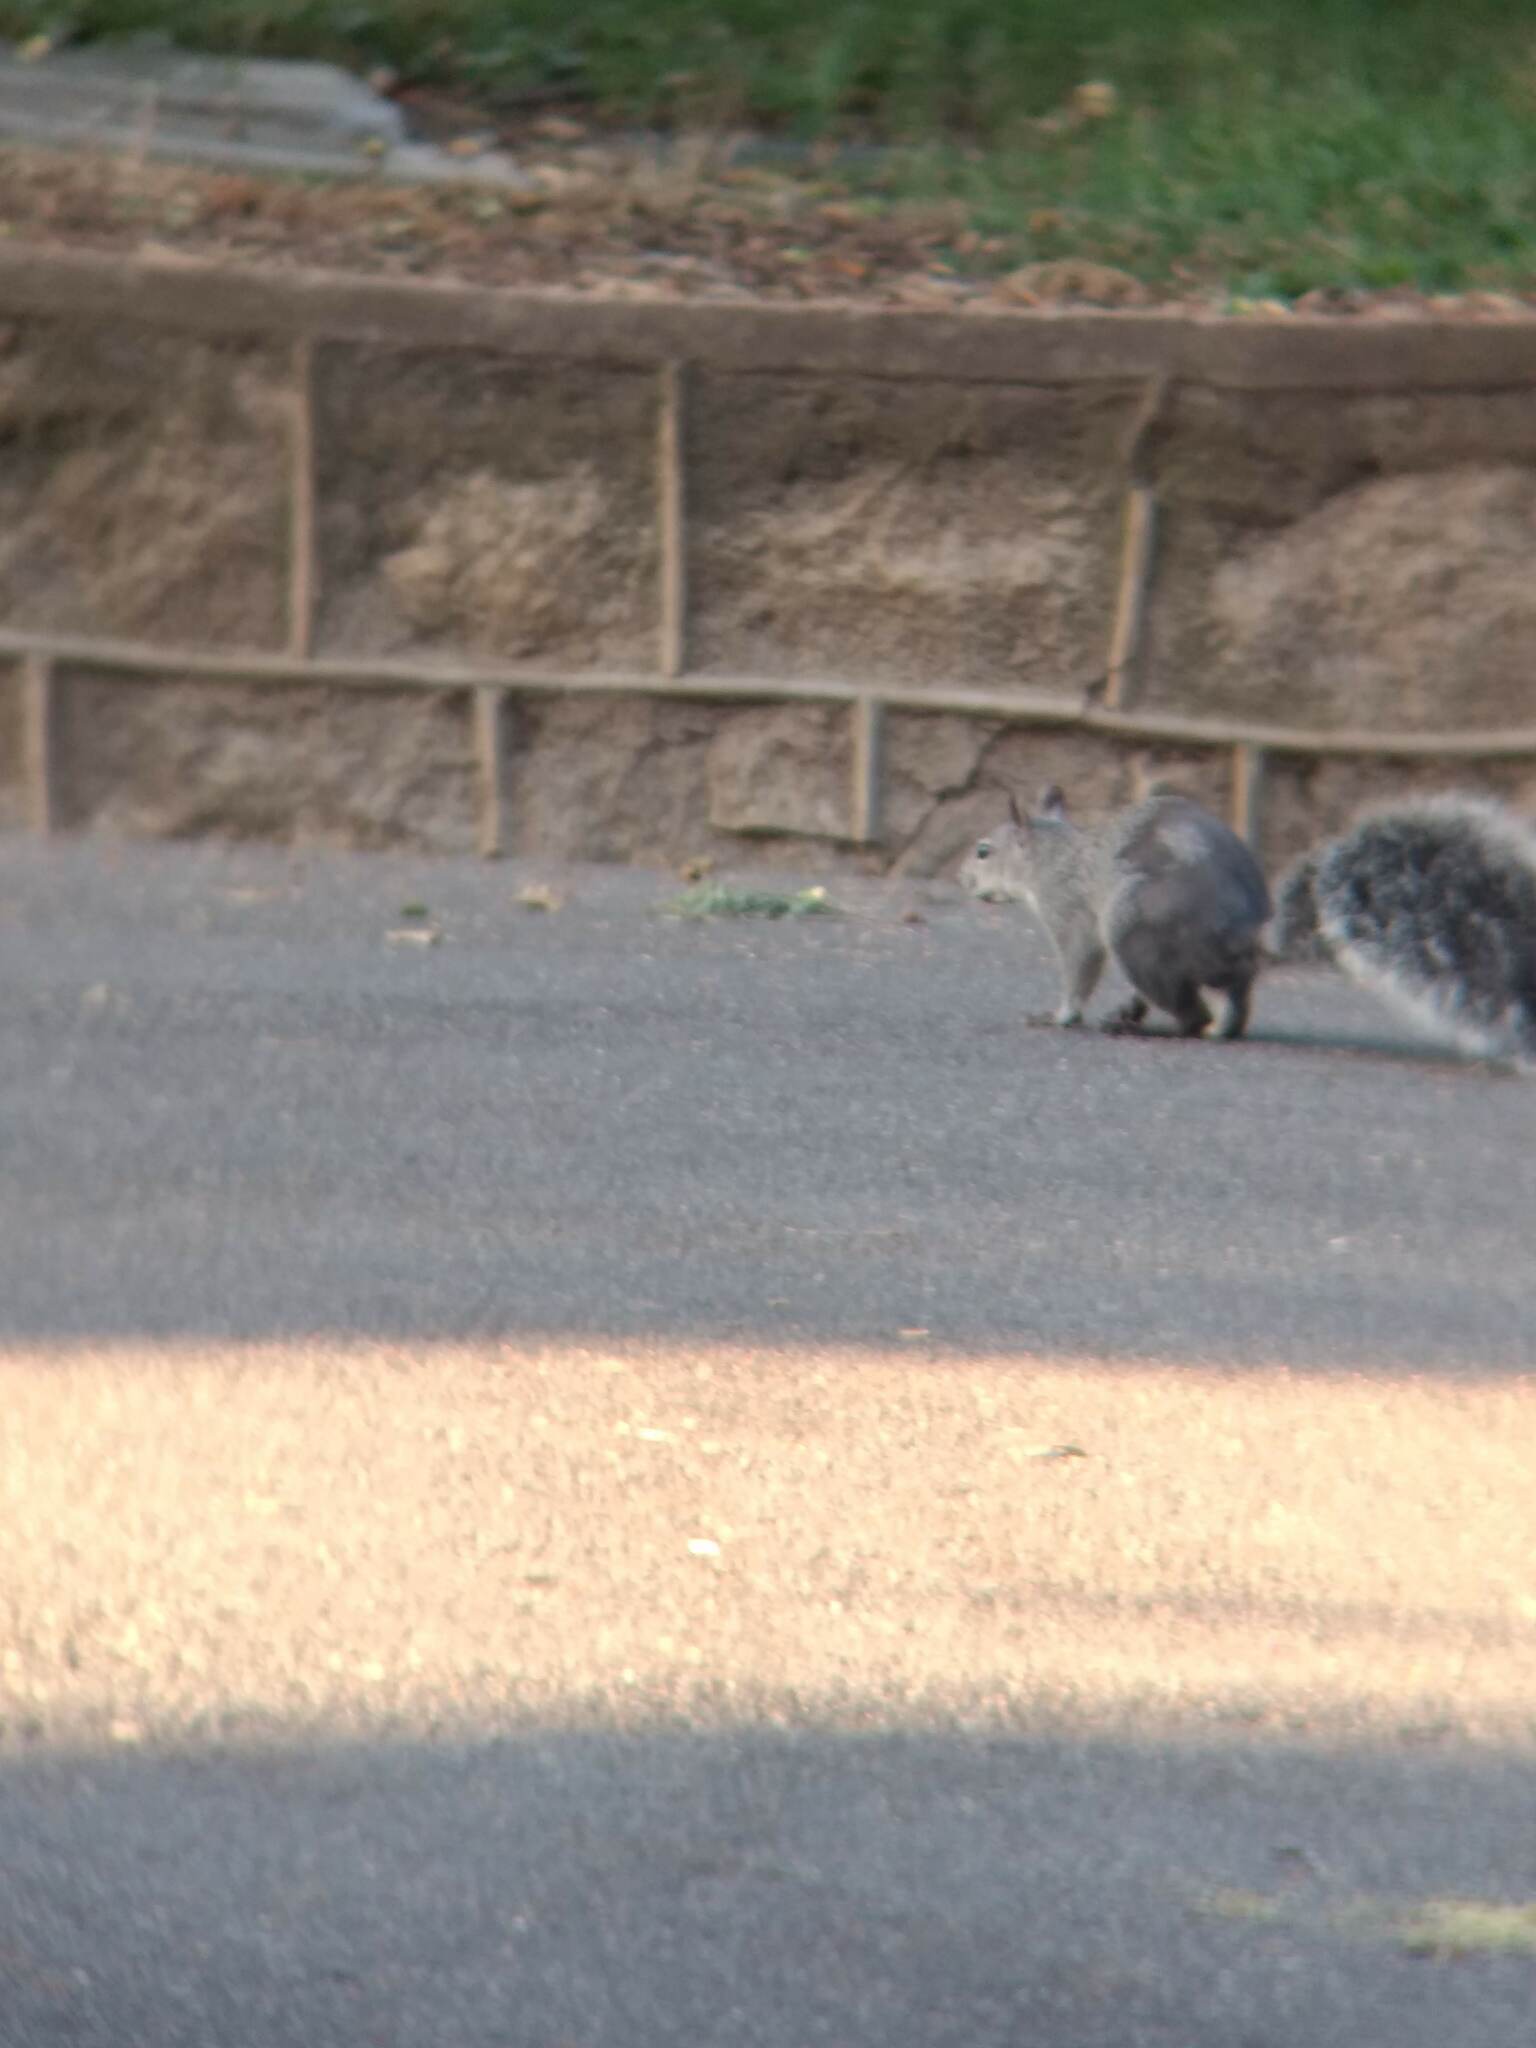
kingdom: Animalia
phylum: Chordata
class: Mammalia
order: Rodentia
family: Sciuridae
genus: Sciurus
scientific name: Sciurus griseus
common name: Western gray squirrel
